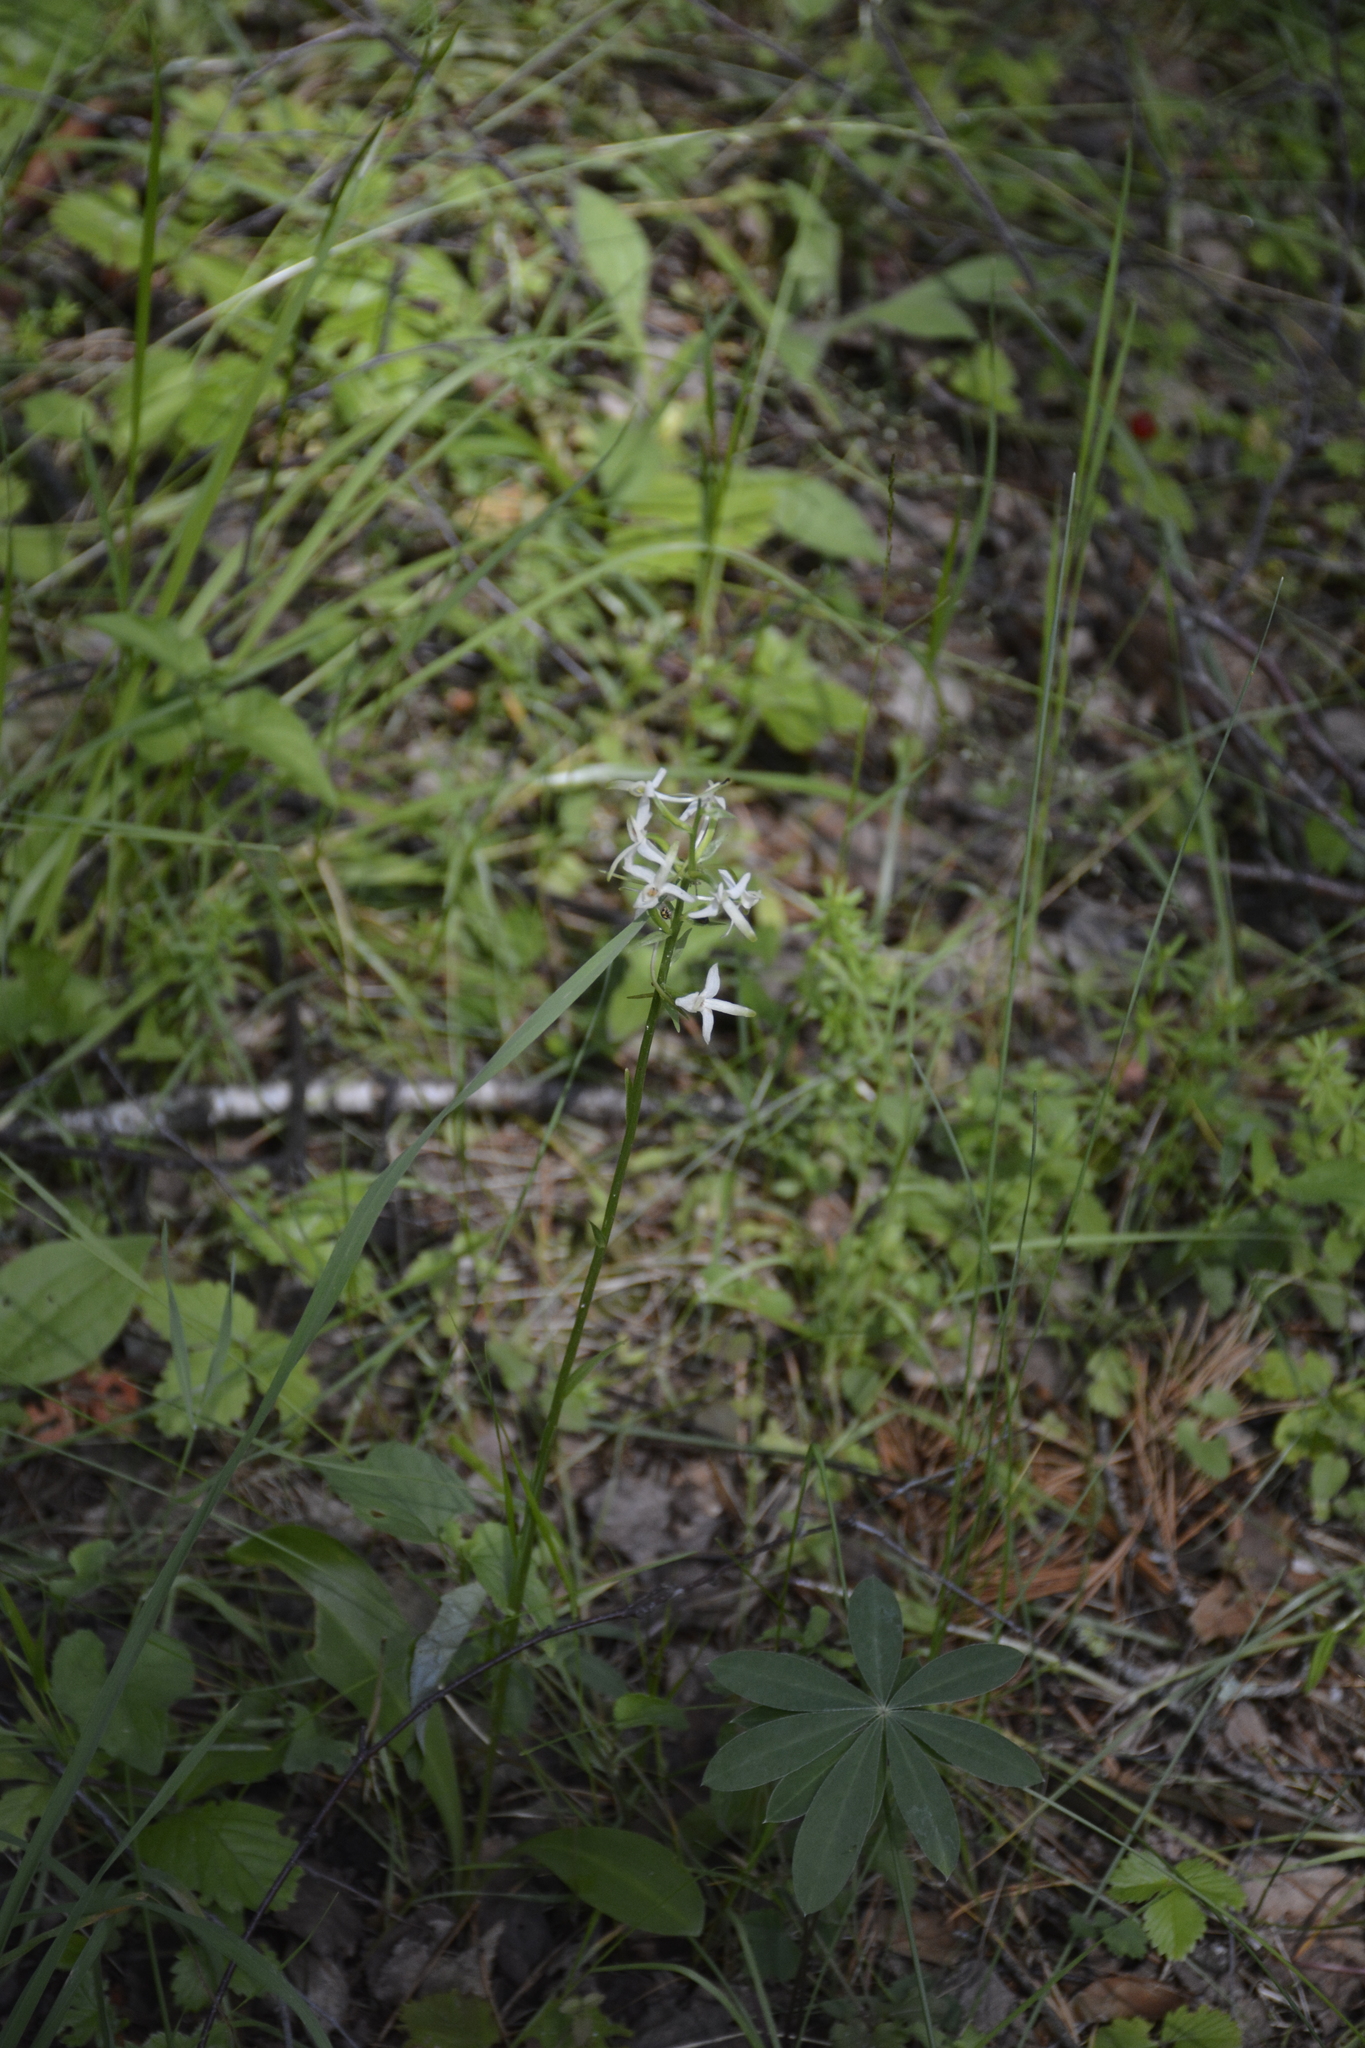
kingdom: Plantae
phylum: Tracheophyta
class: Liliopsida
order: Asparagales
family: Orchidaceae
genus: Platanthera
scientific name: Platanthera bifolia
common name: Lesser butterfly-orchid
